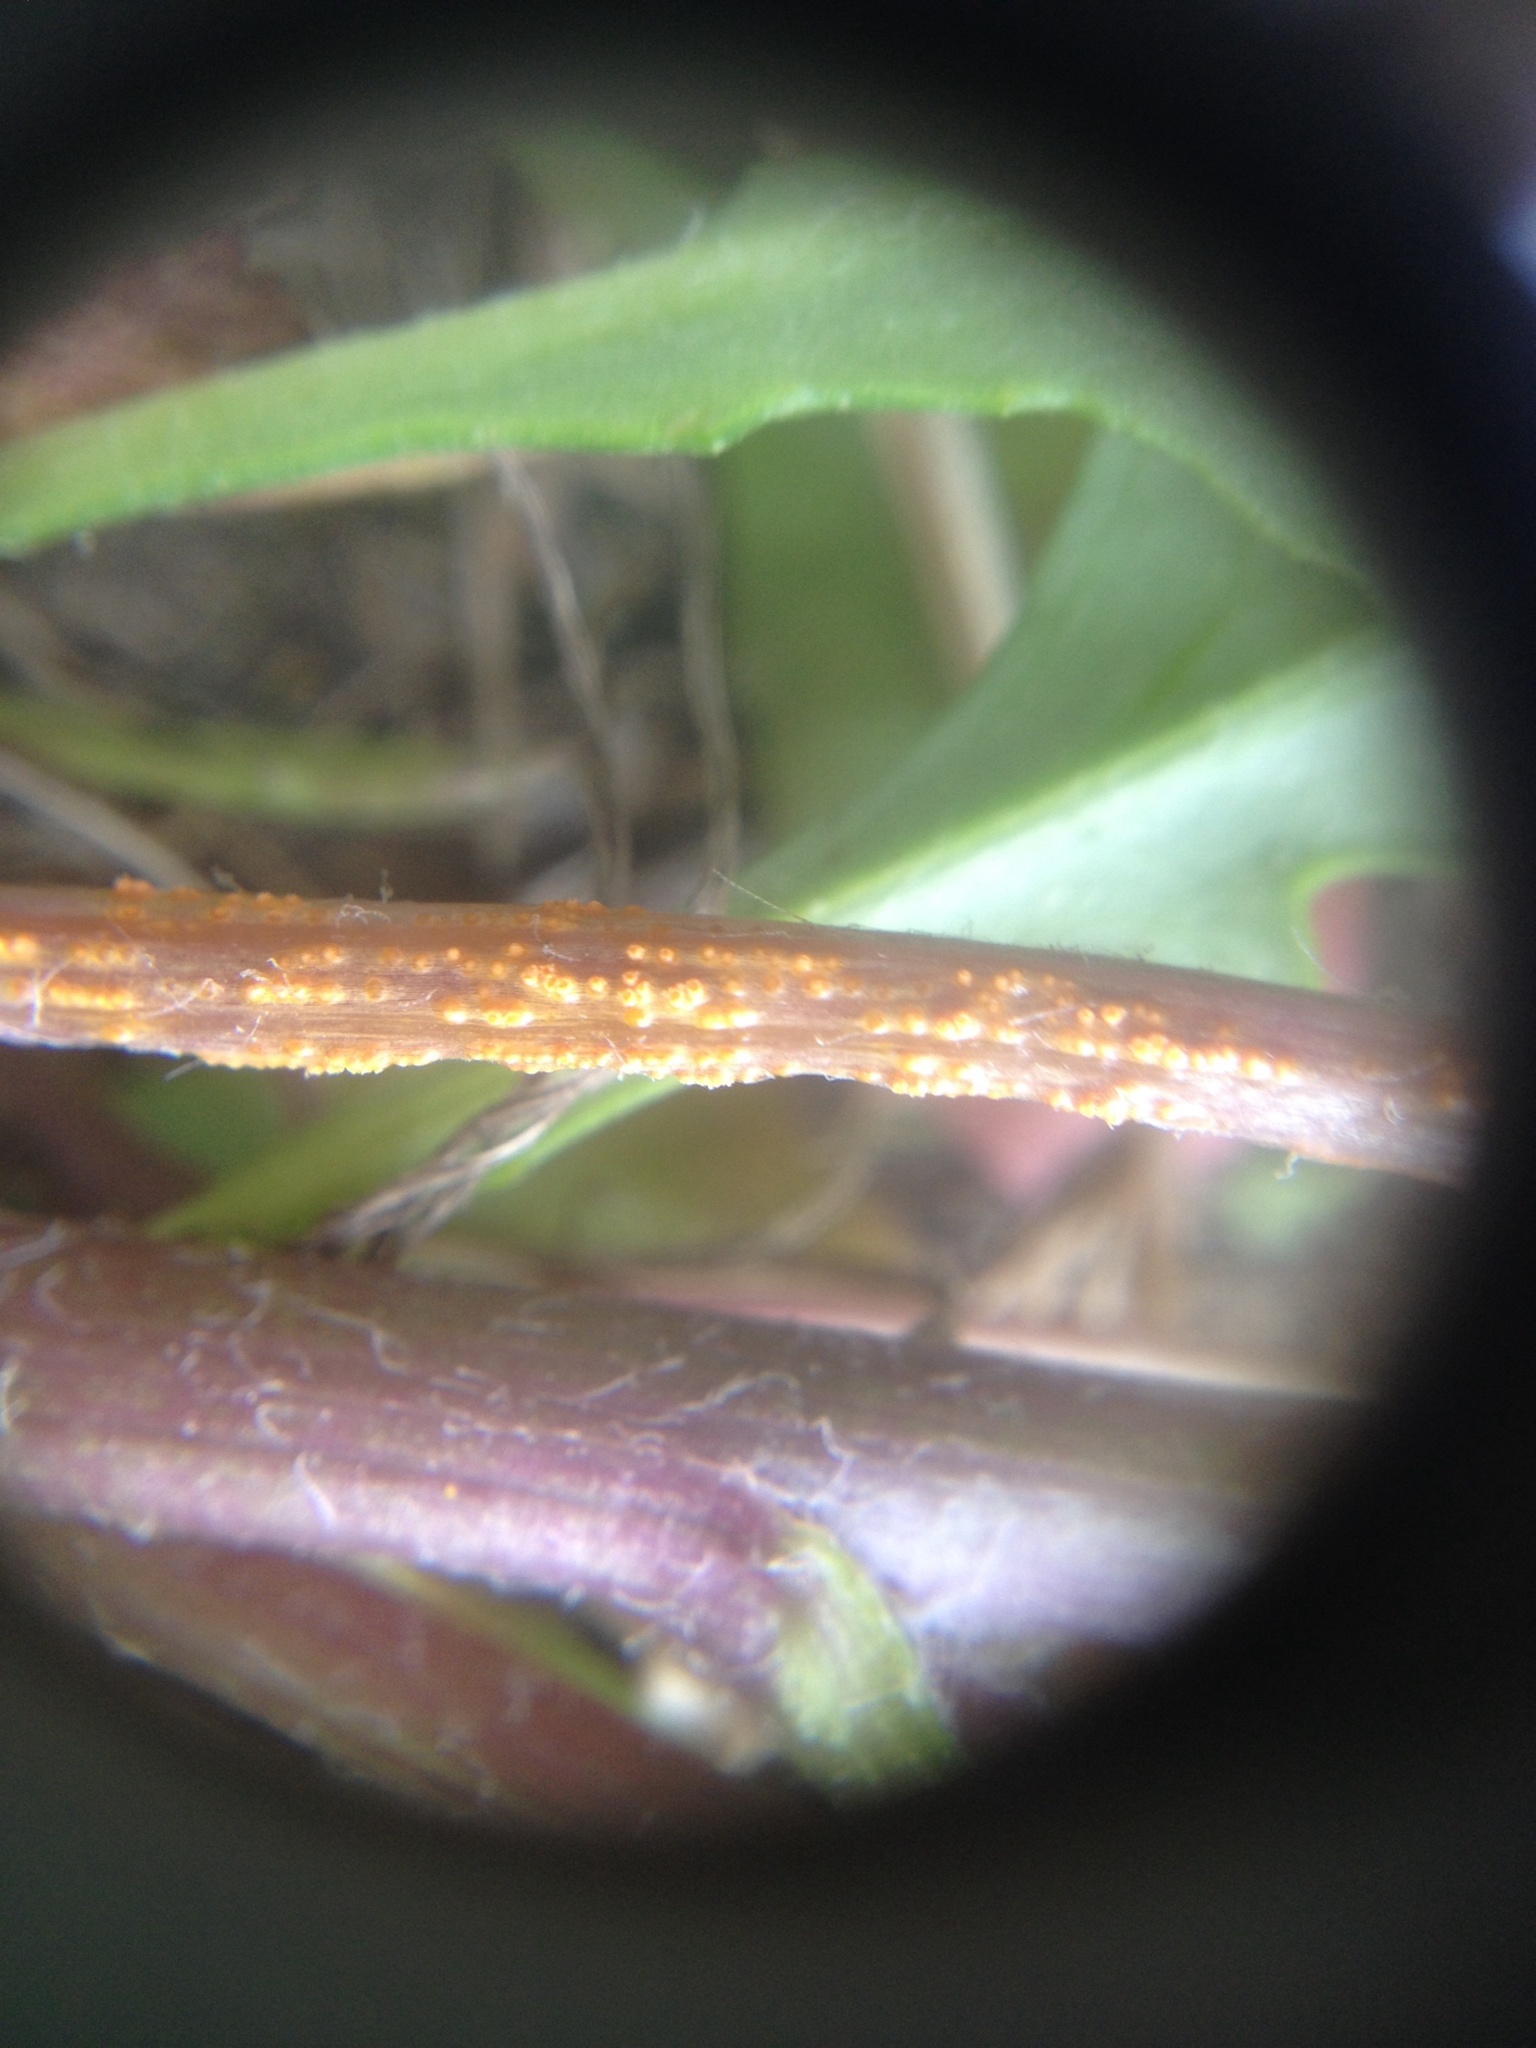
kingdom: Fungi
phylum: Basidiomycota
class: Pucciniomycetes
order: Pucciniales
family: Pucciniaceae
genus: Puccinia
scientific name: Puccinia lagenophorae
